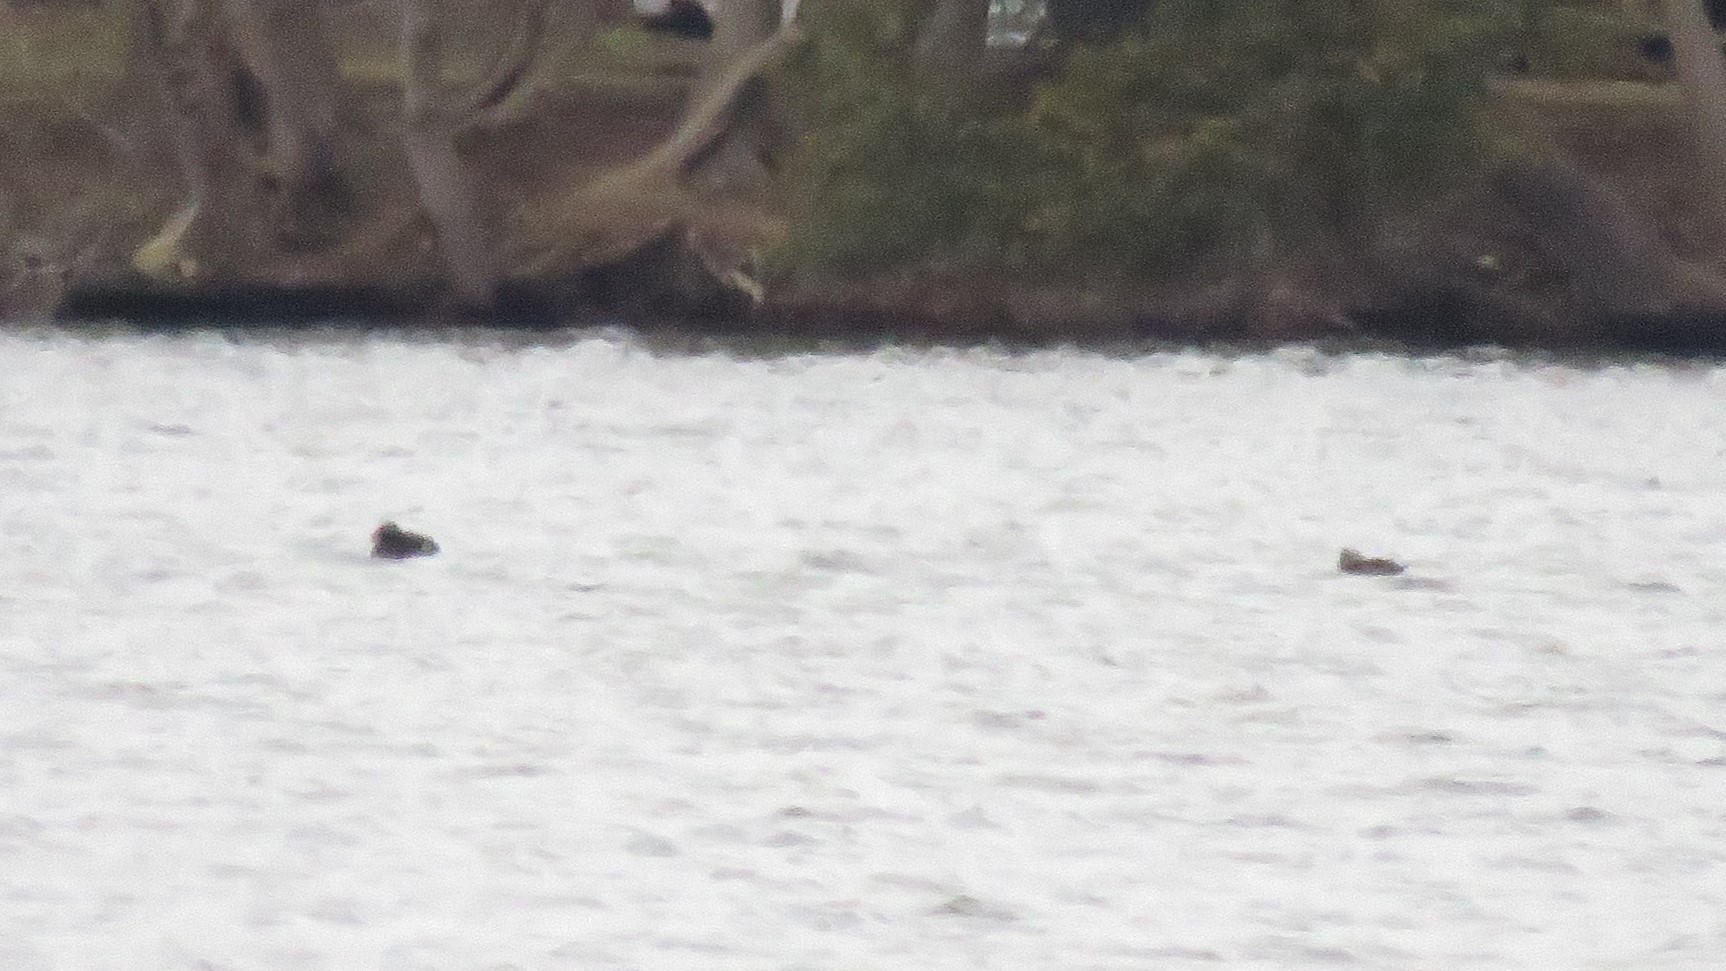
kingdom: Animalia
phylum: Chordata
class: Aves
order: Anseriformes
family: Anatidae
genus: Melanitta
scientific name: Melanitta deglandi
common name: White-winged scoter
